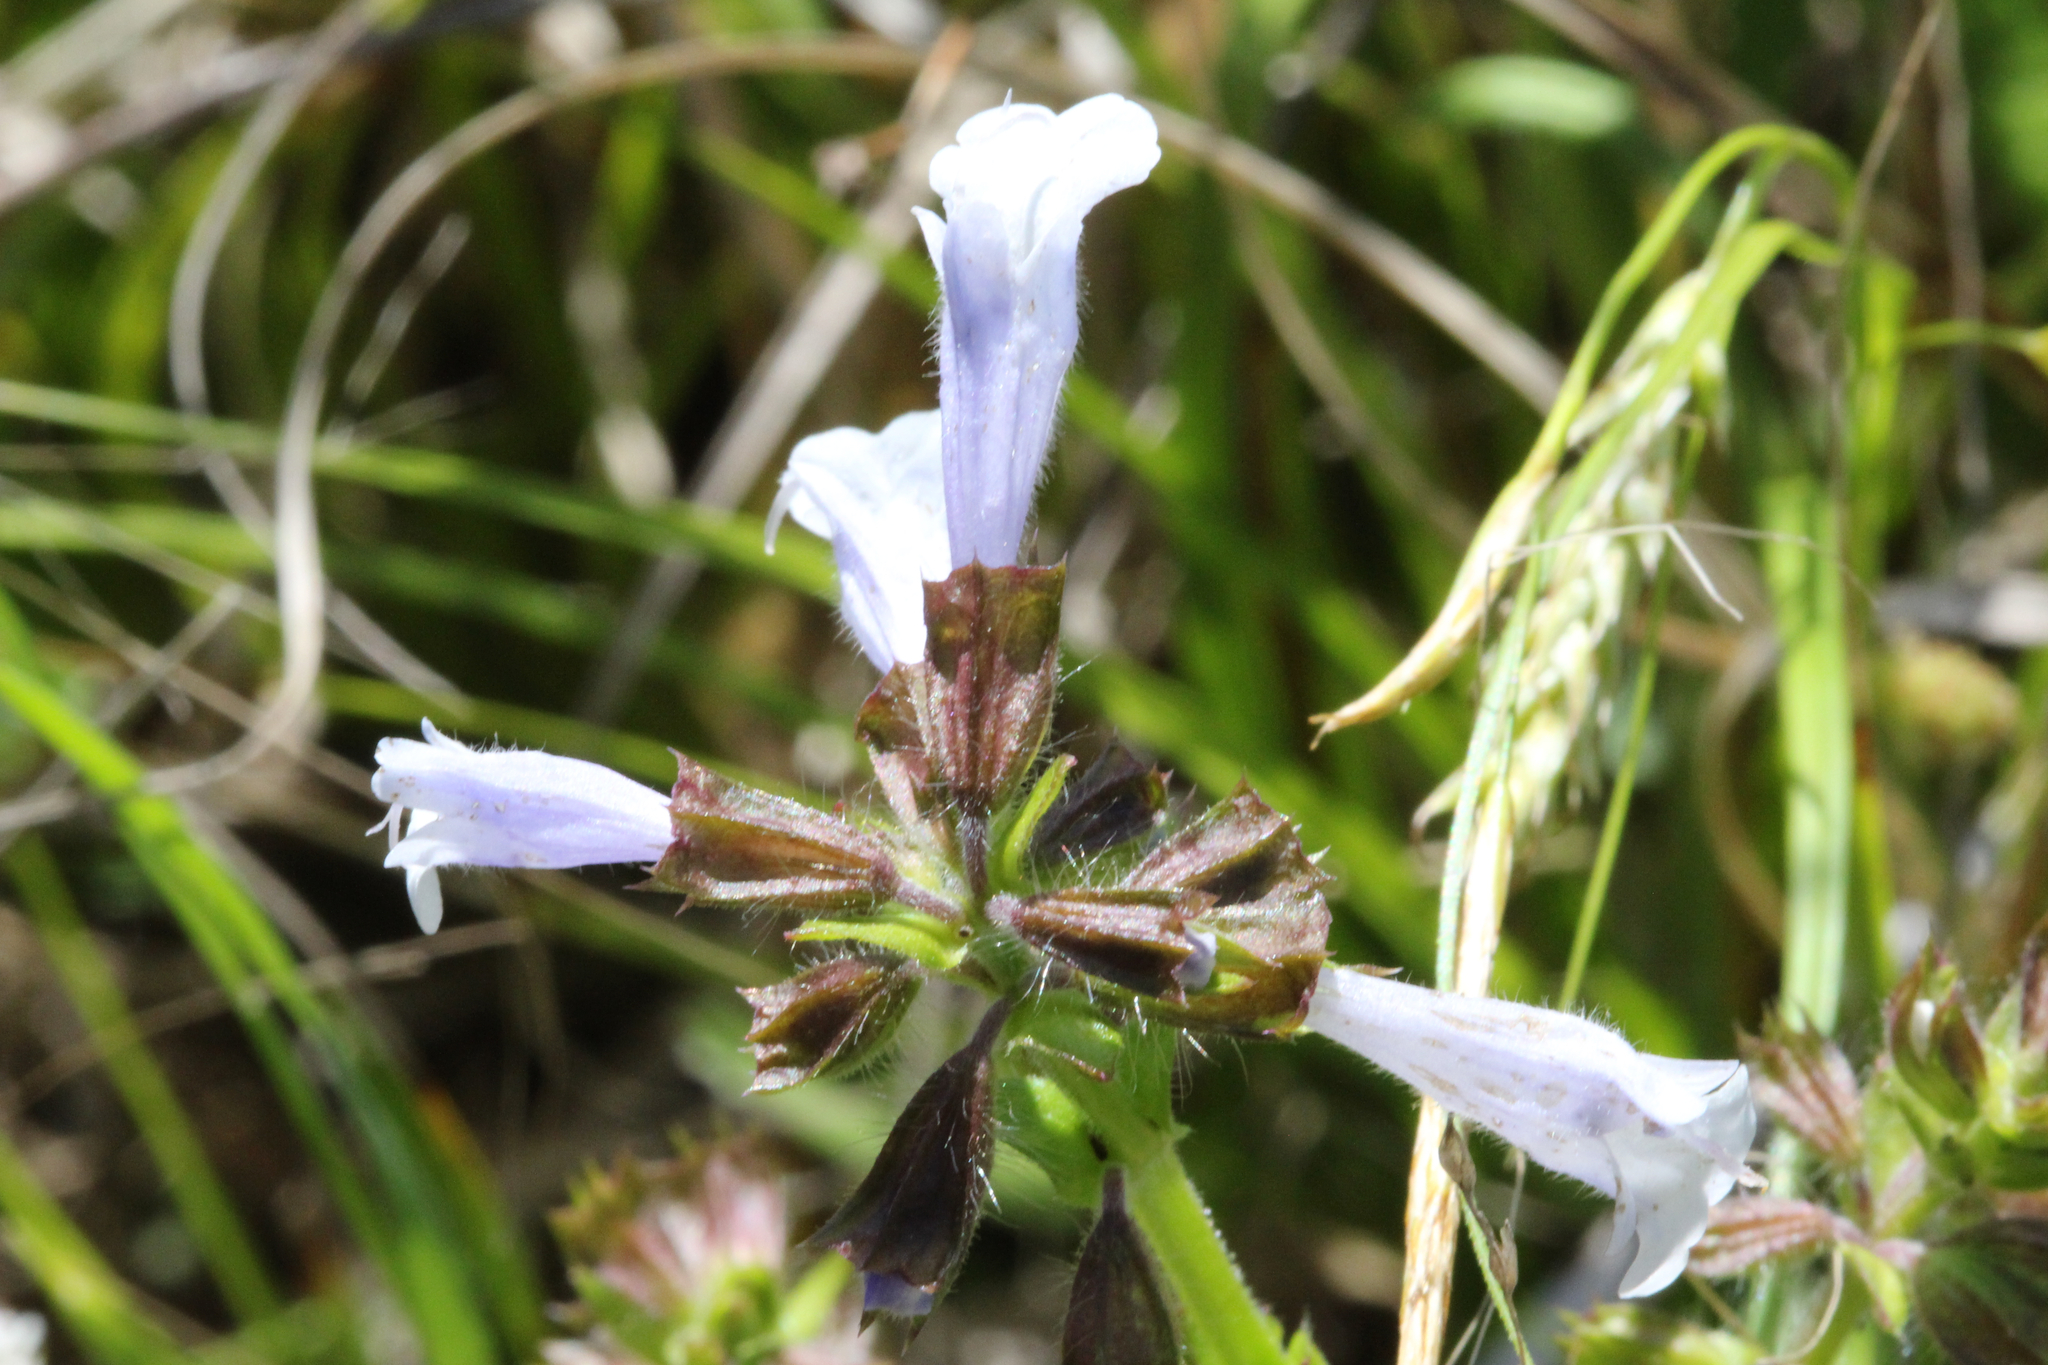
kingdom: Plantae
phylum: Tracheophyta
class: Magnoliopsida
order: Lamiales
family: Lamiaceae
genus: Salvia
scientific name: Salvia lyrata
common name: Cancerweed
